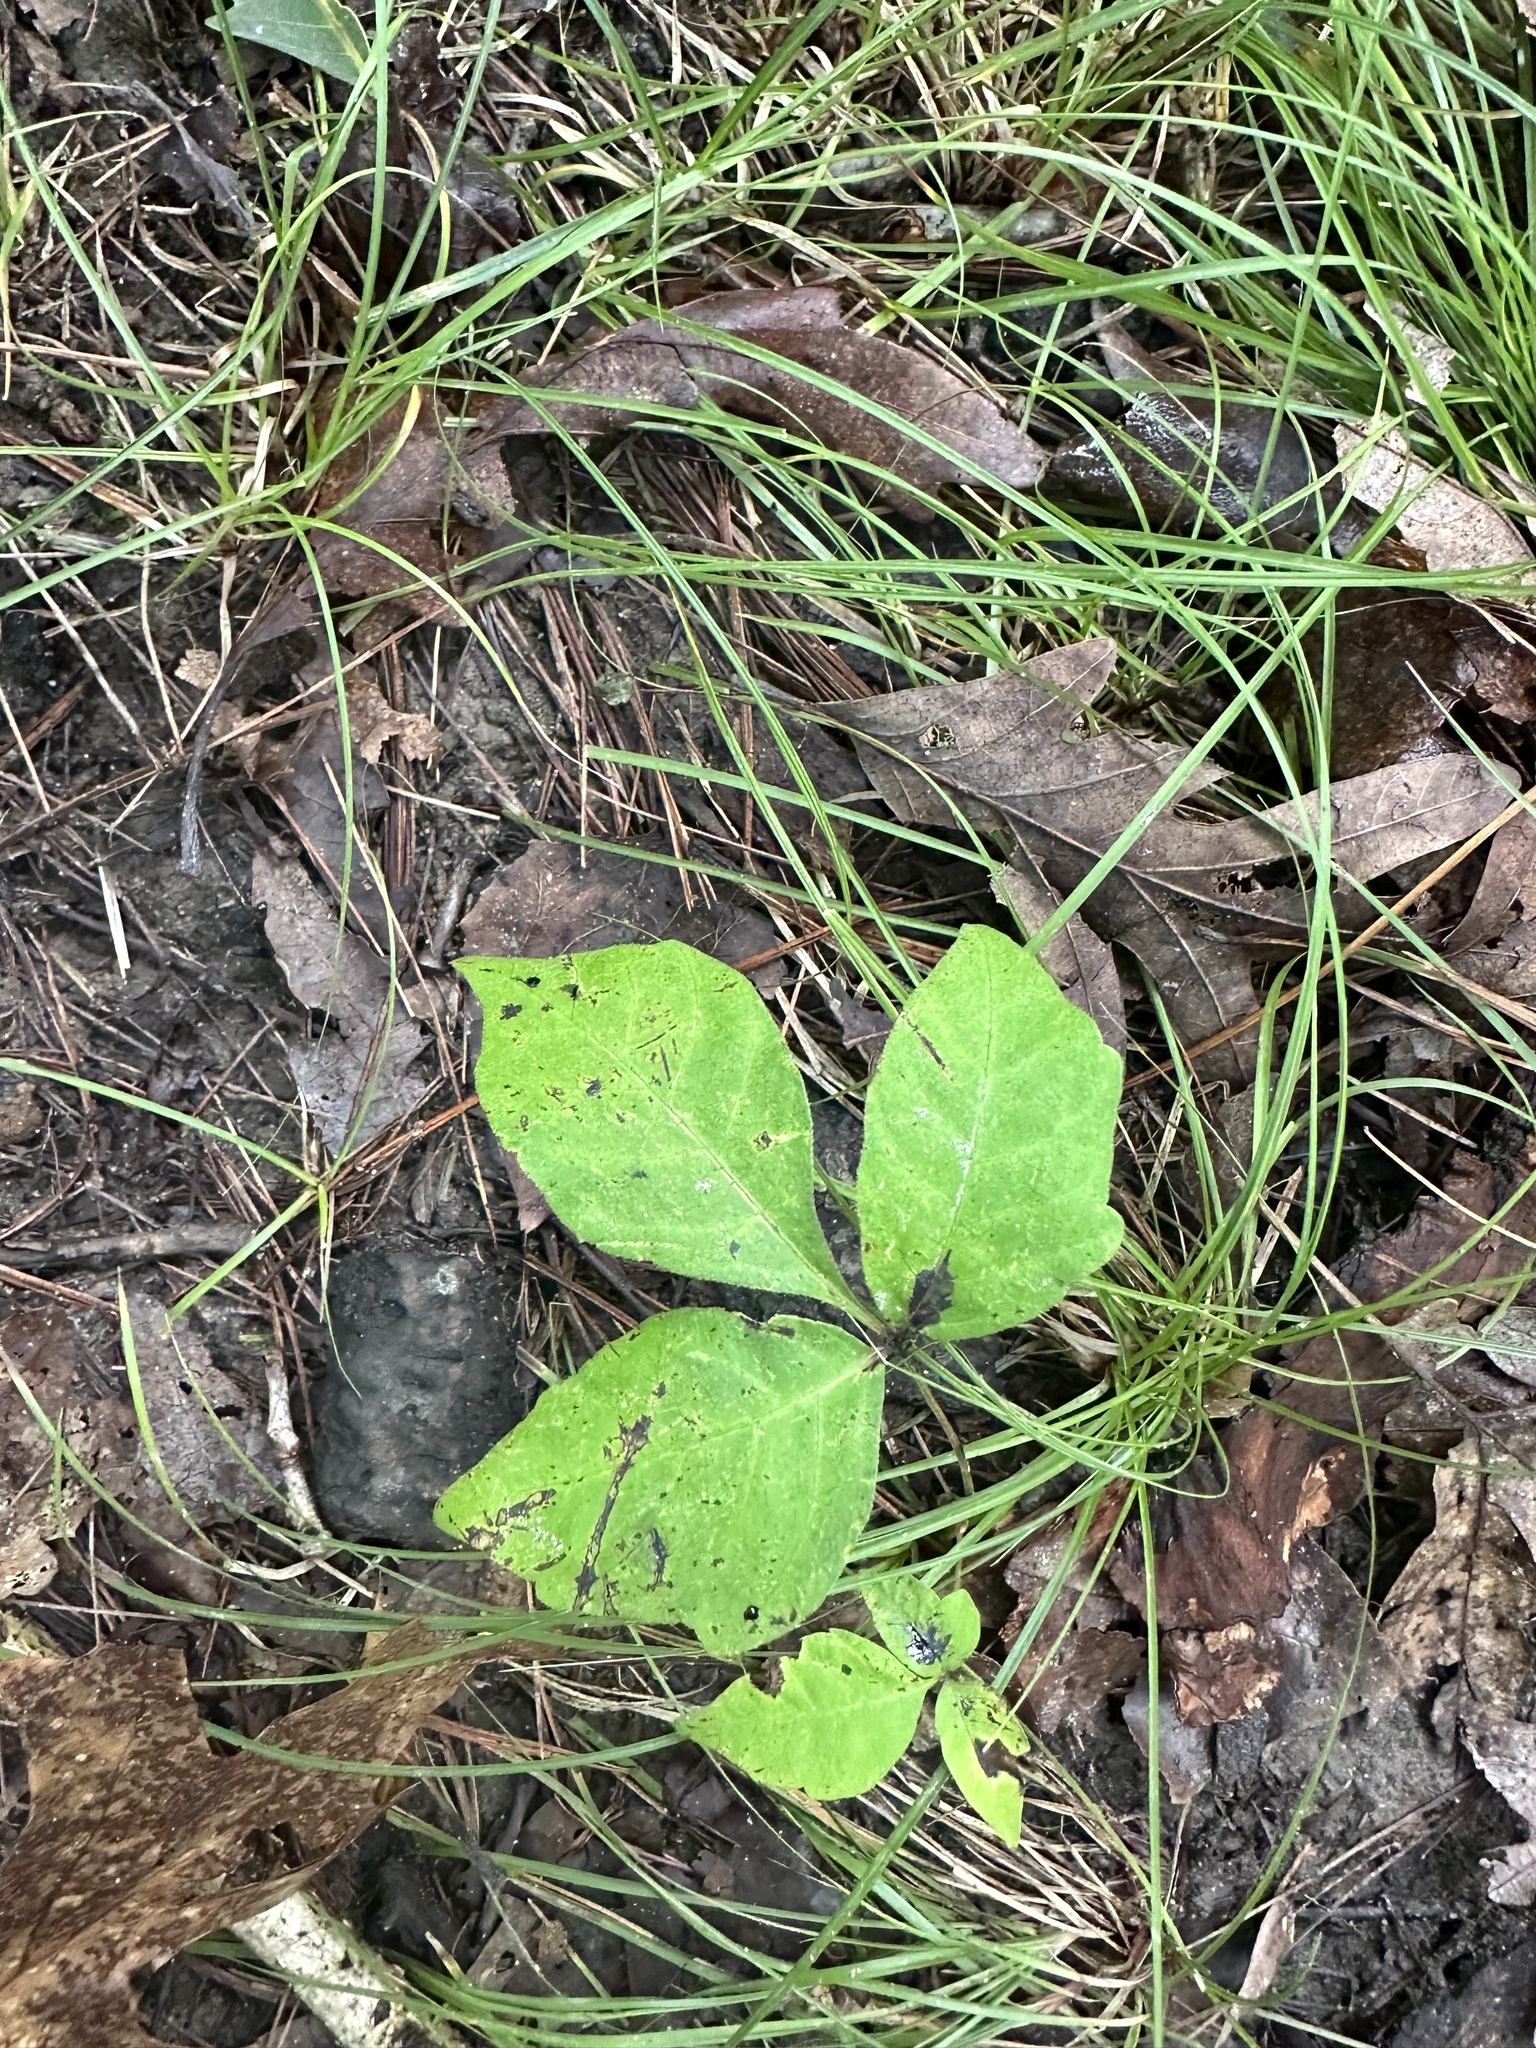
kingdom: Plantae
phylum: Tracheophyta
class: Magnoliopsida
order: Sapindales
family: Anacardiaceae
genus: Toxicodendron
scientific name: Toxicodendron radicans
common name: Poison ivy
